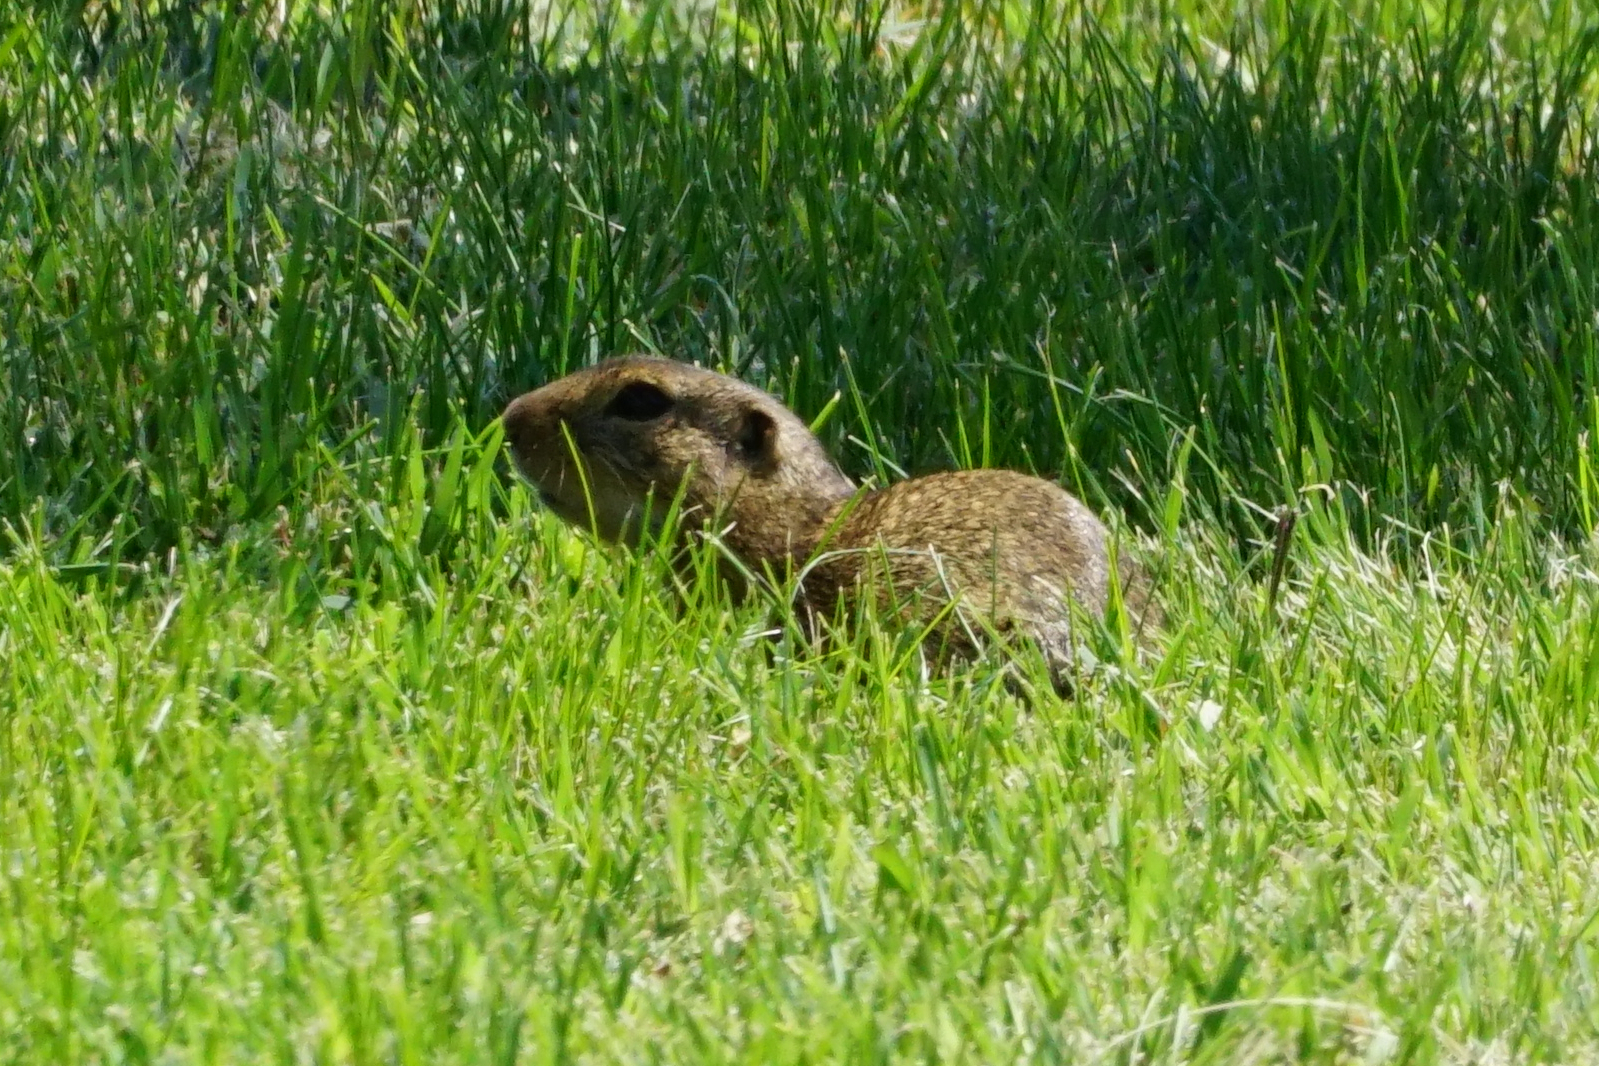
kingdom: Animalia
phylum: Chordata
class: Mammalia
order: Rodentia
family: Sciuridae
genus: Spermophilus
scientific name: Spermophilus citellus
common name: European ground squirrel
